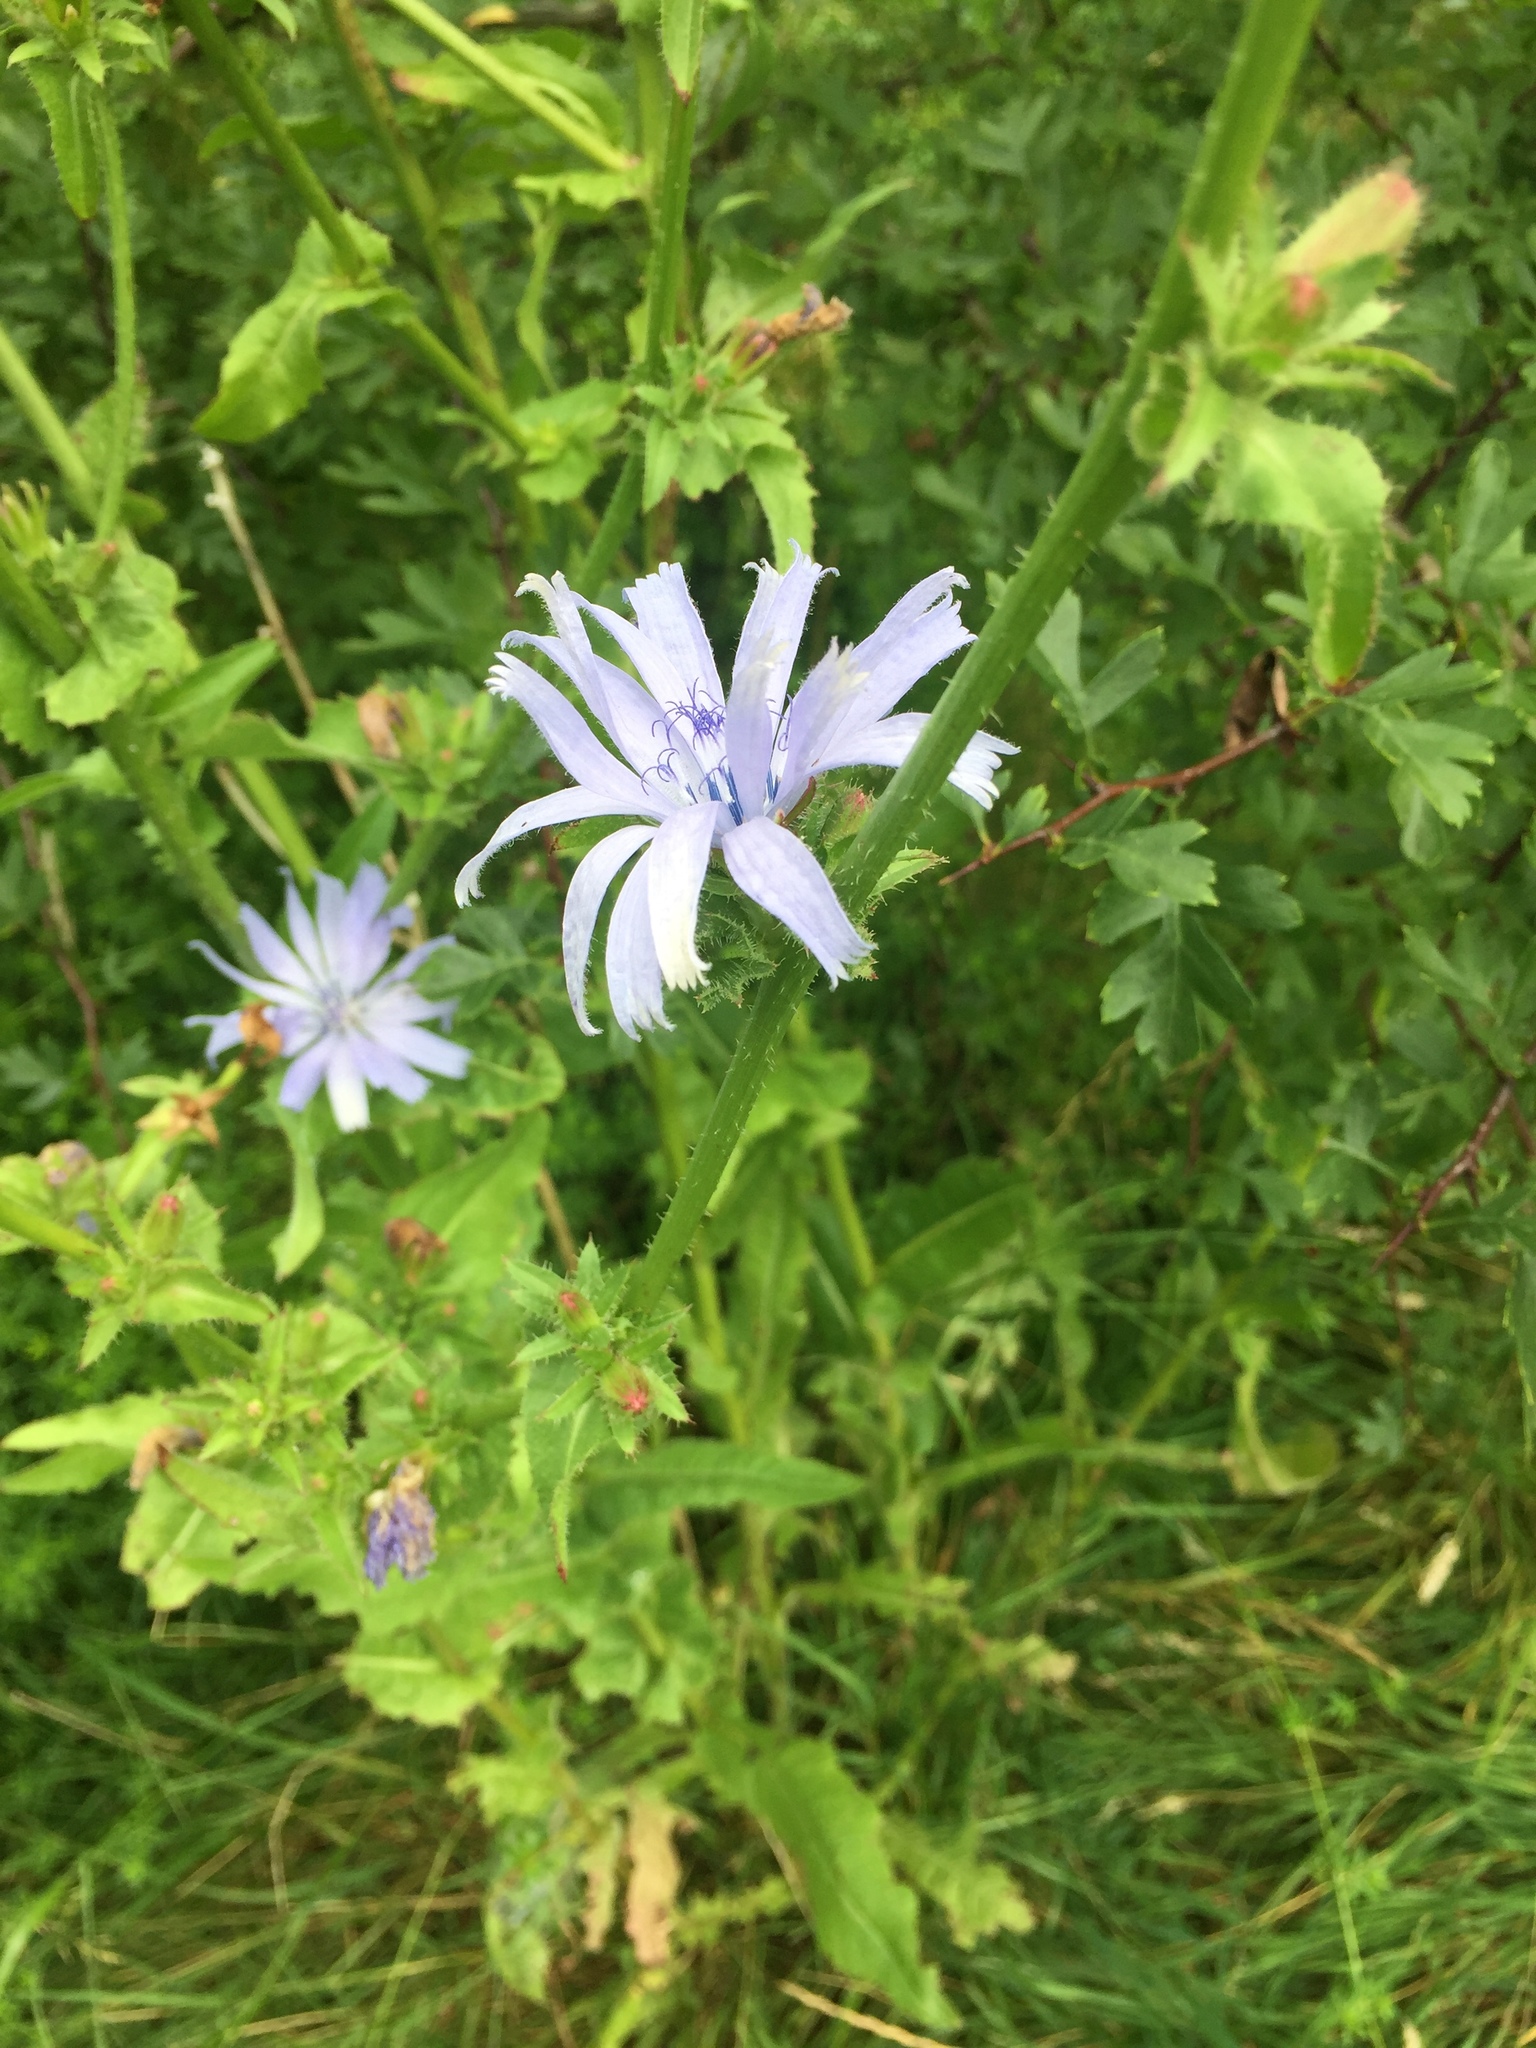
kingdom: Plantae
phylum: Tracheophyta
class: Magnoliopsida
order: Asterales
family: Asteraceae
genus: Cichorium
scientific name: Cichorium intybus
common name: Chicory
